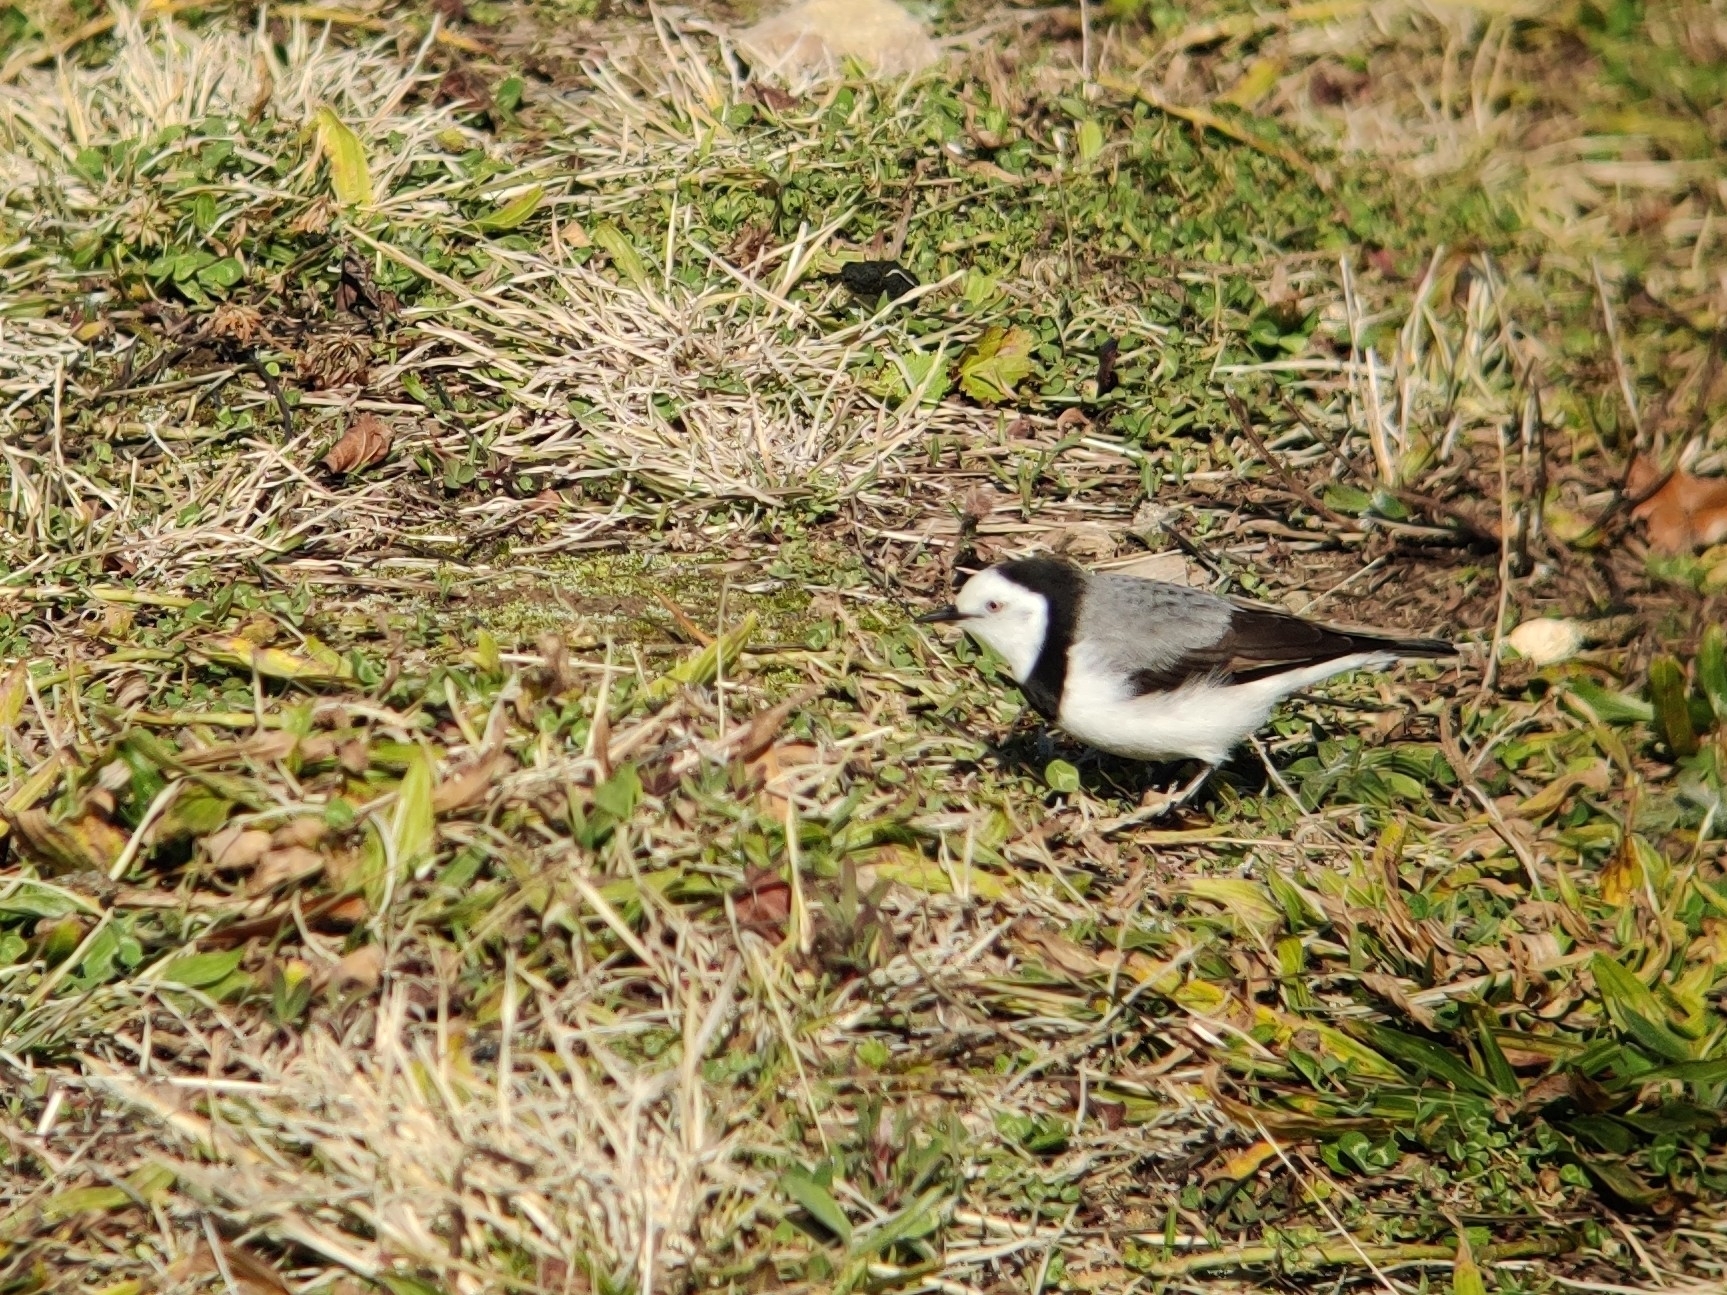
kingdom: Animalia
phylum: Chordata
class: Aves
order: Passeriformes
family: Meliphagidae
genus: Epthianura
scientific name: Epthianura albifrons
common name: White-fronted chat
